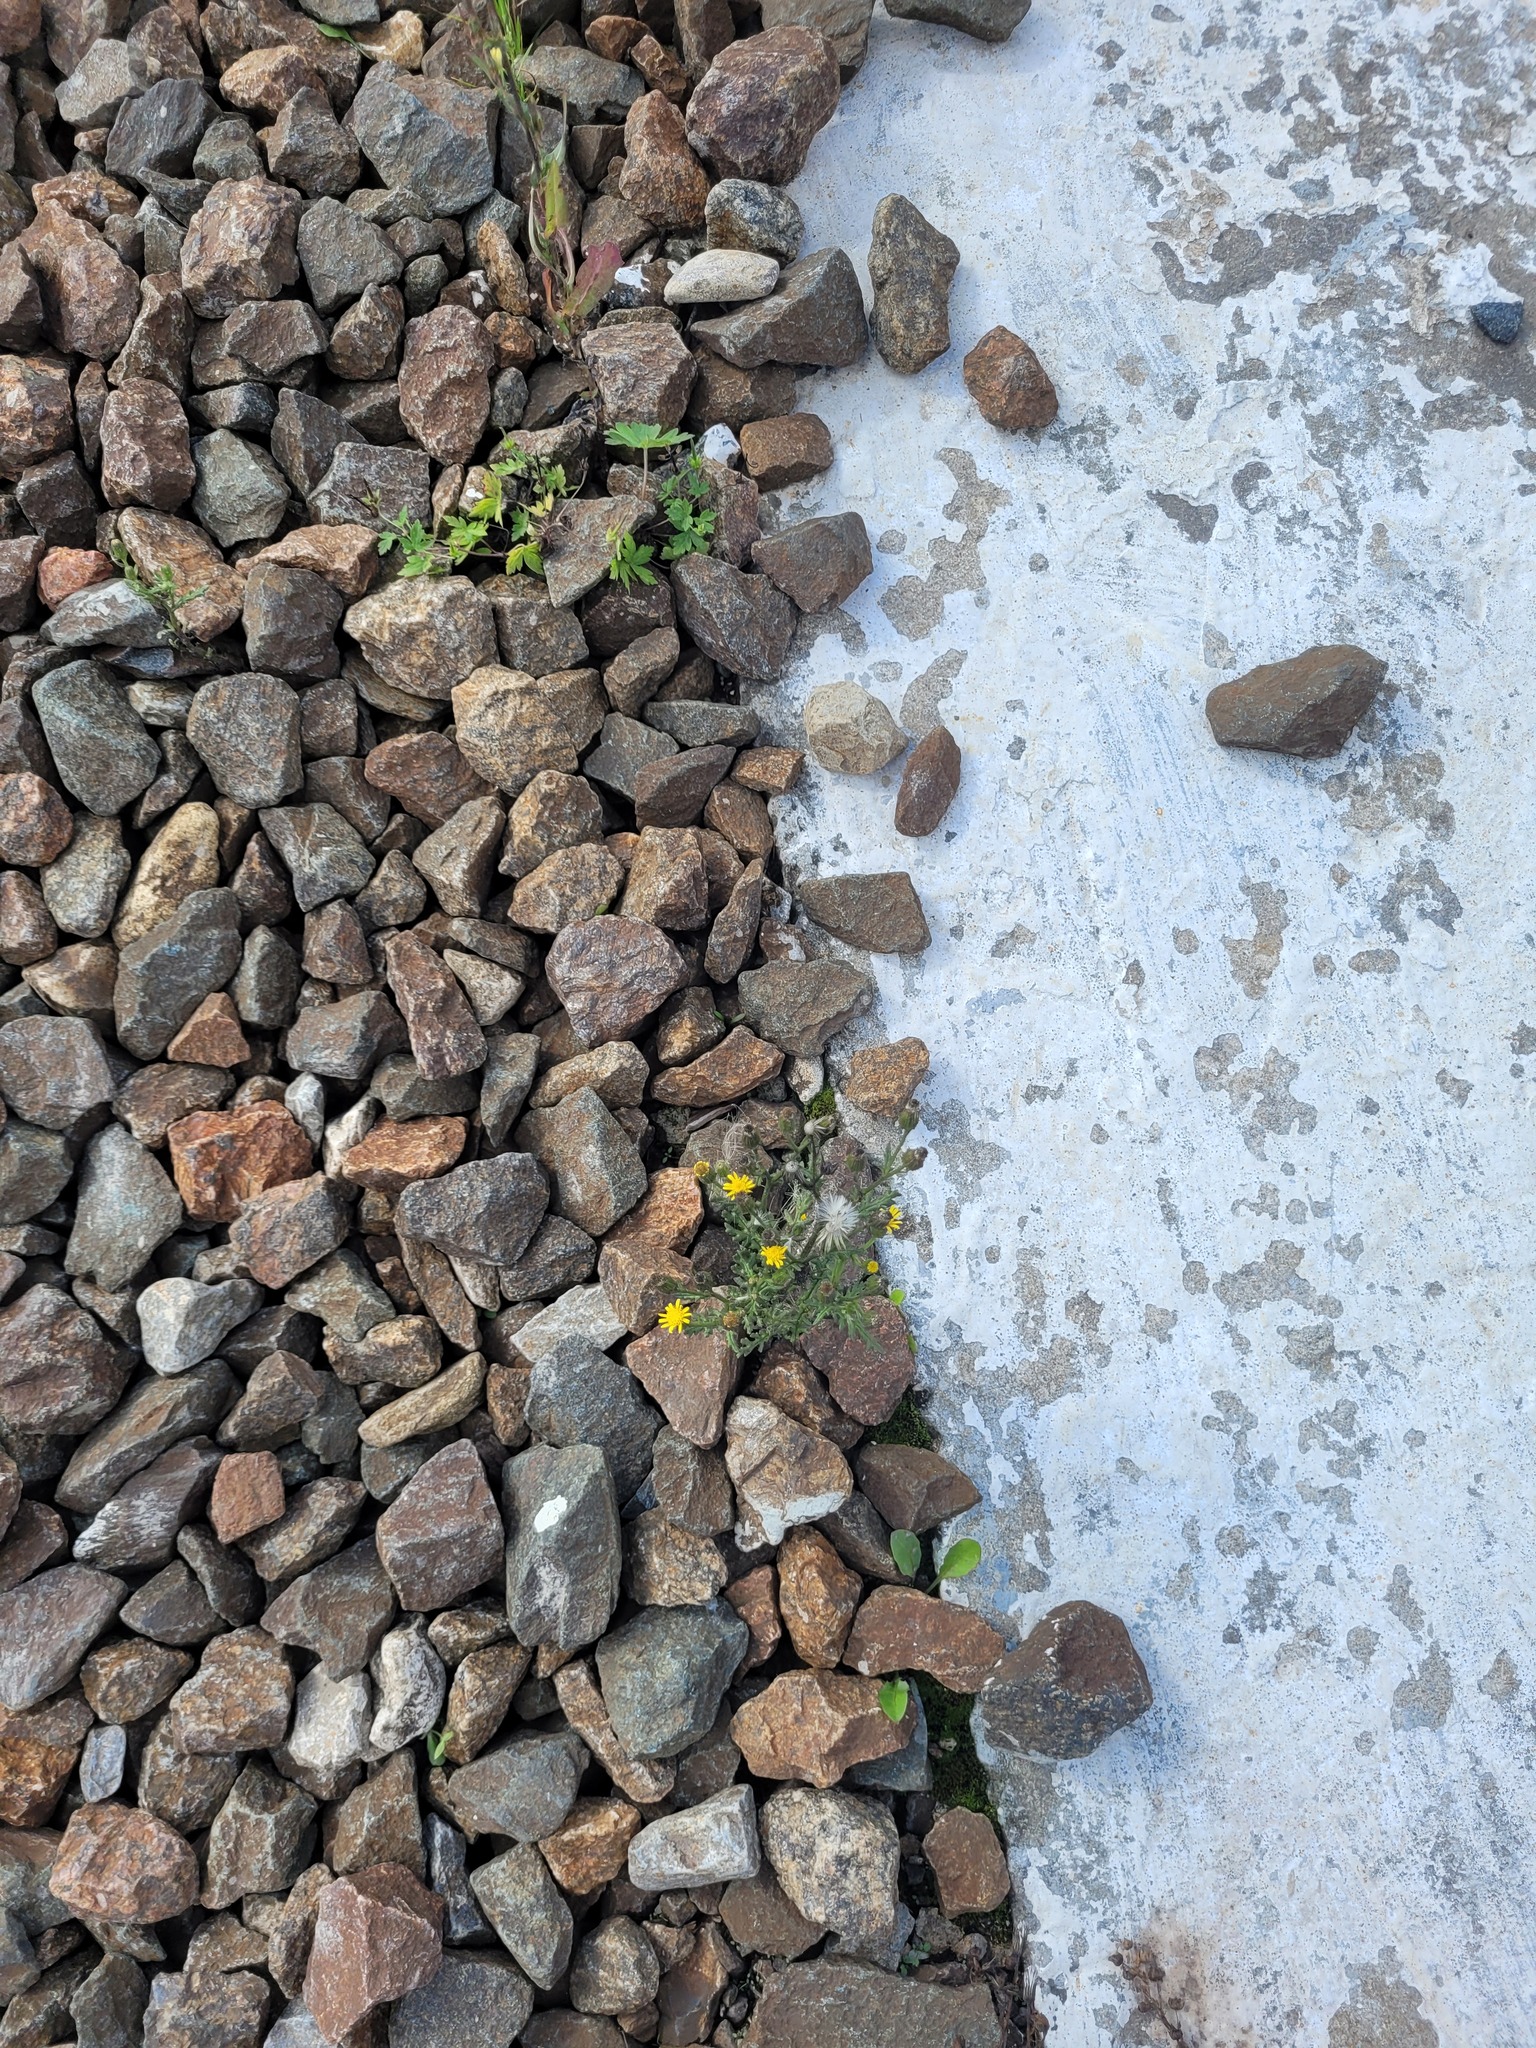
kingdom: Plantae
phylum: Tracheophyta
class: Magnoliopsida
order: Asterales
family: Asteraceae
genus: Senecio
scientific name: Senecio viscosus
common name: Sticky groundsel
